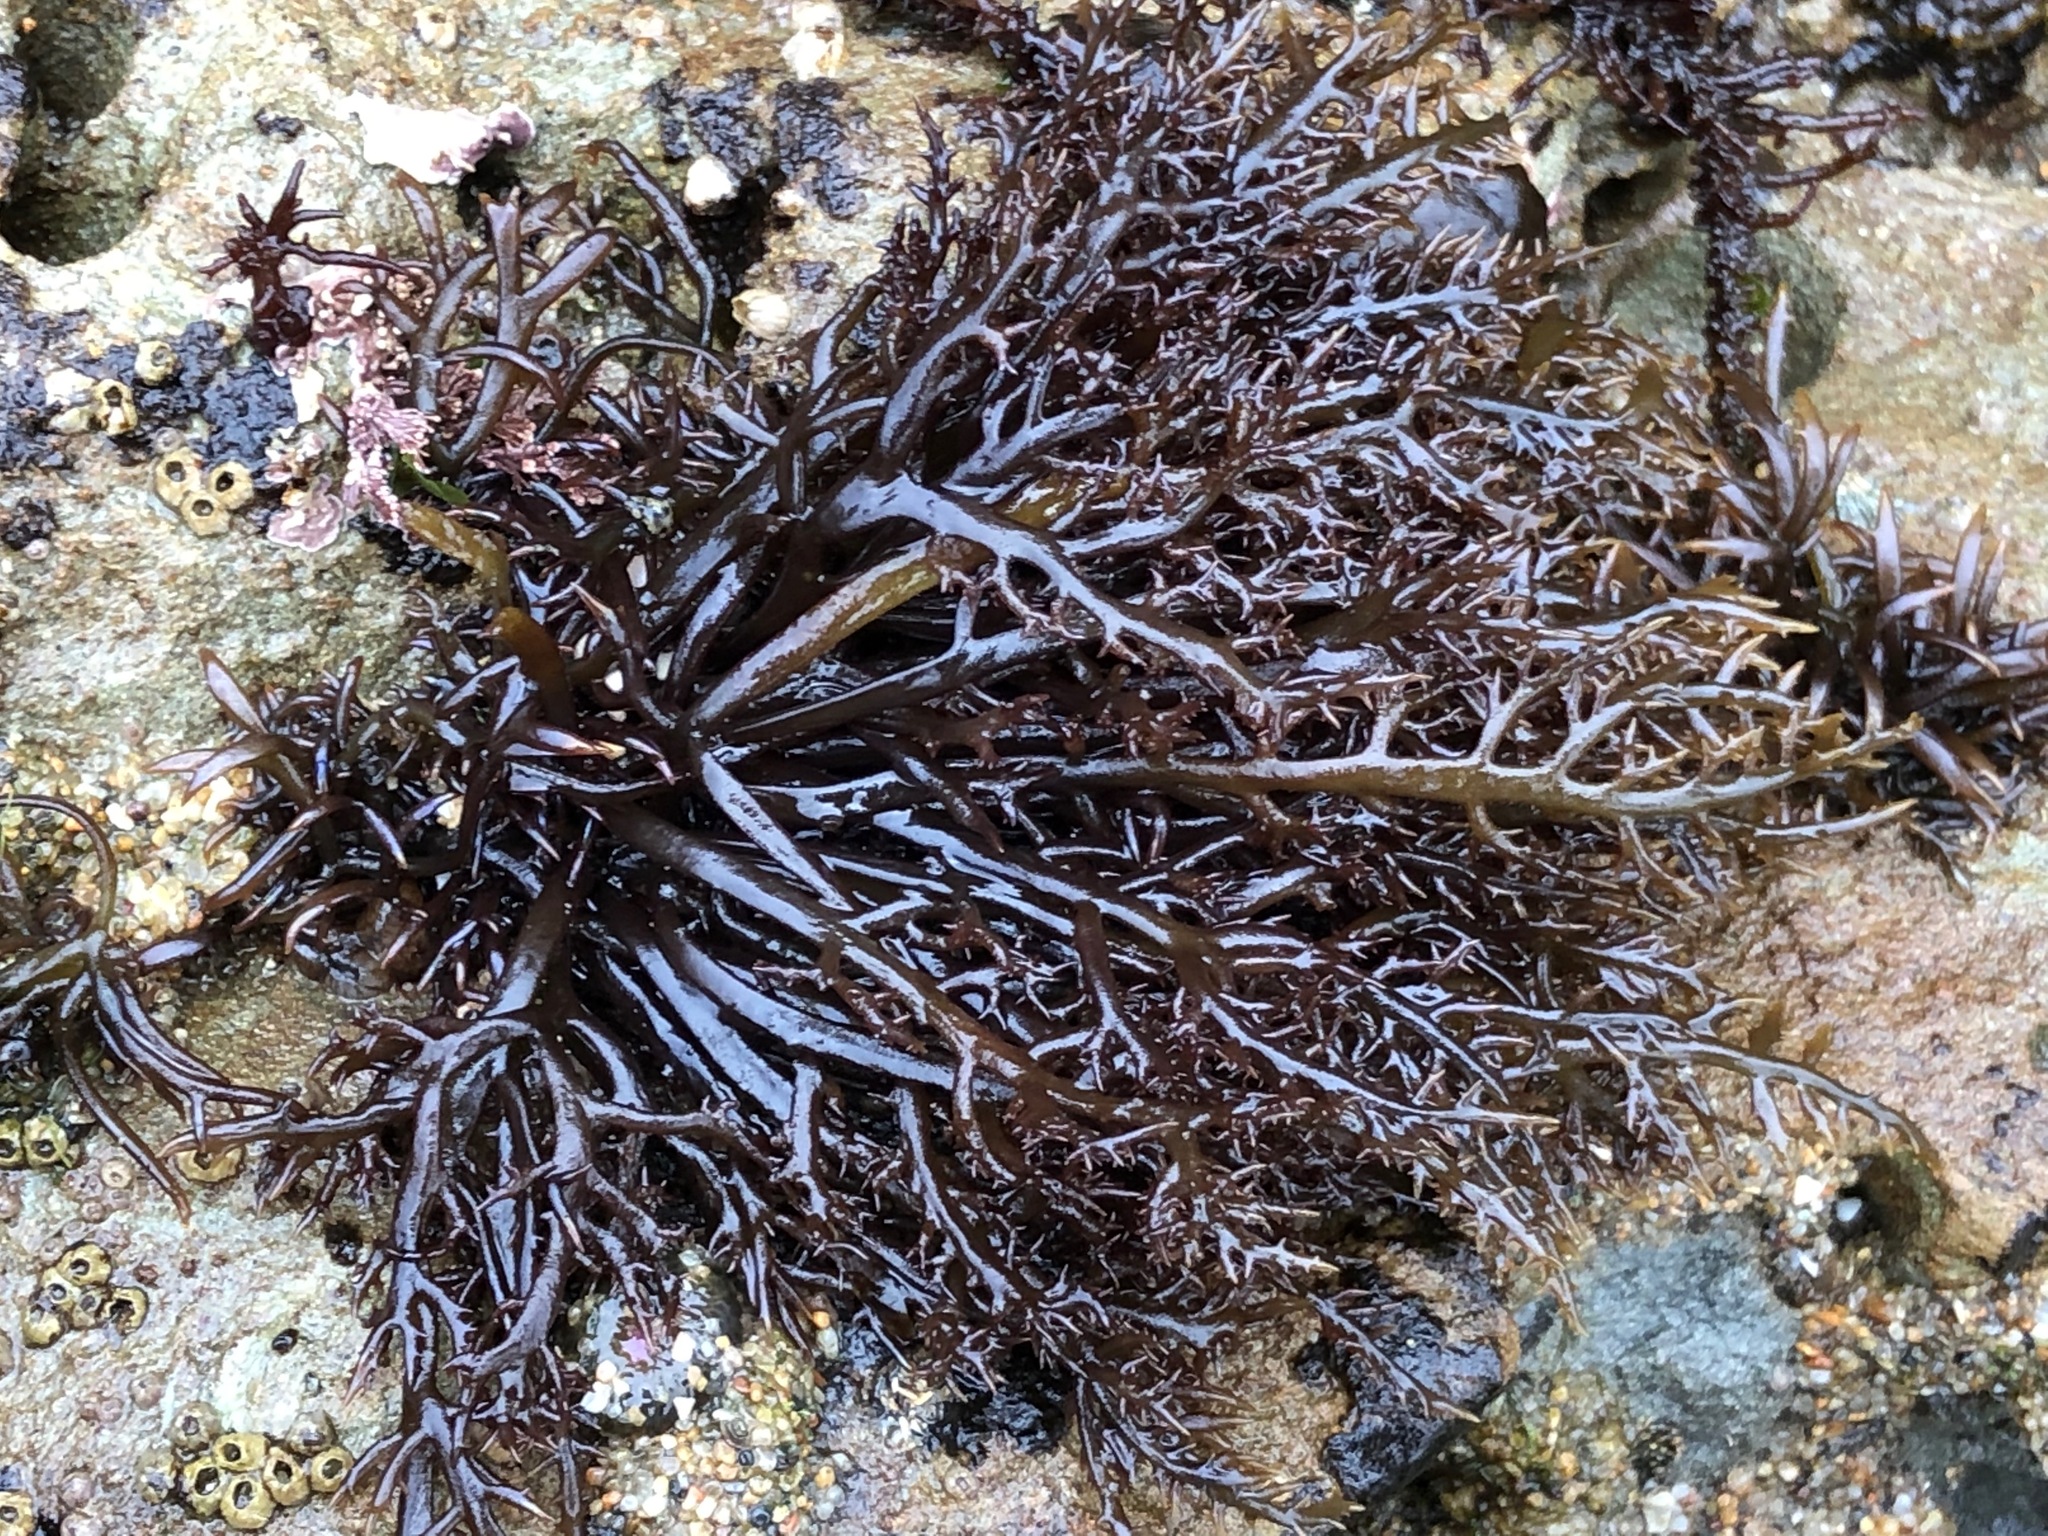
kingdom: Plantae
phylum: Rhodophyta
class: Florideophyceae
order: Gigartinales
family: Gigartinaceae
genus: Chondracanthus
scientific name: Chondracanthus canaliculatus
